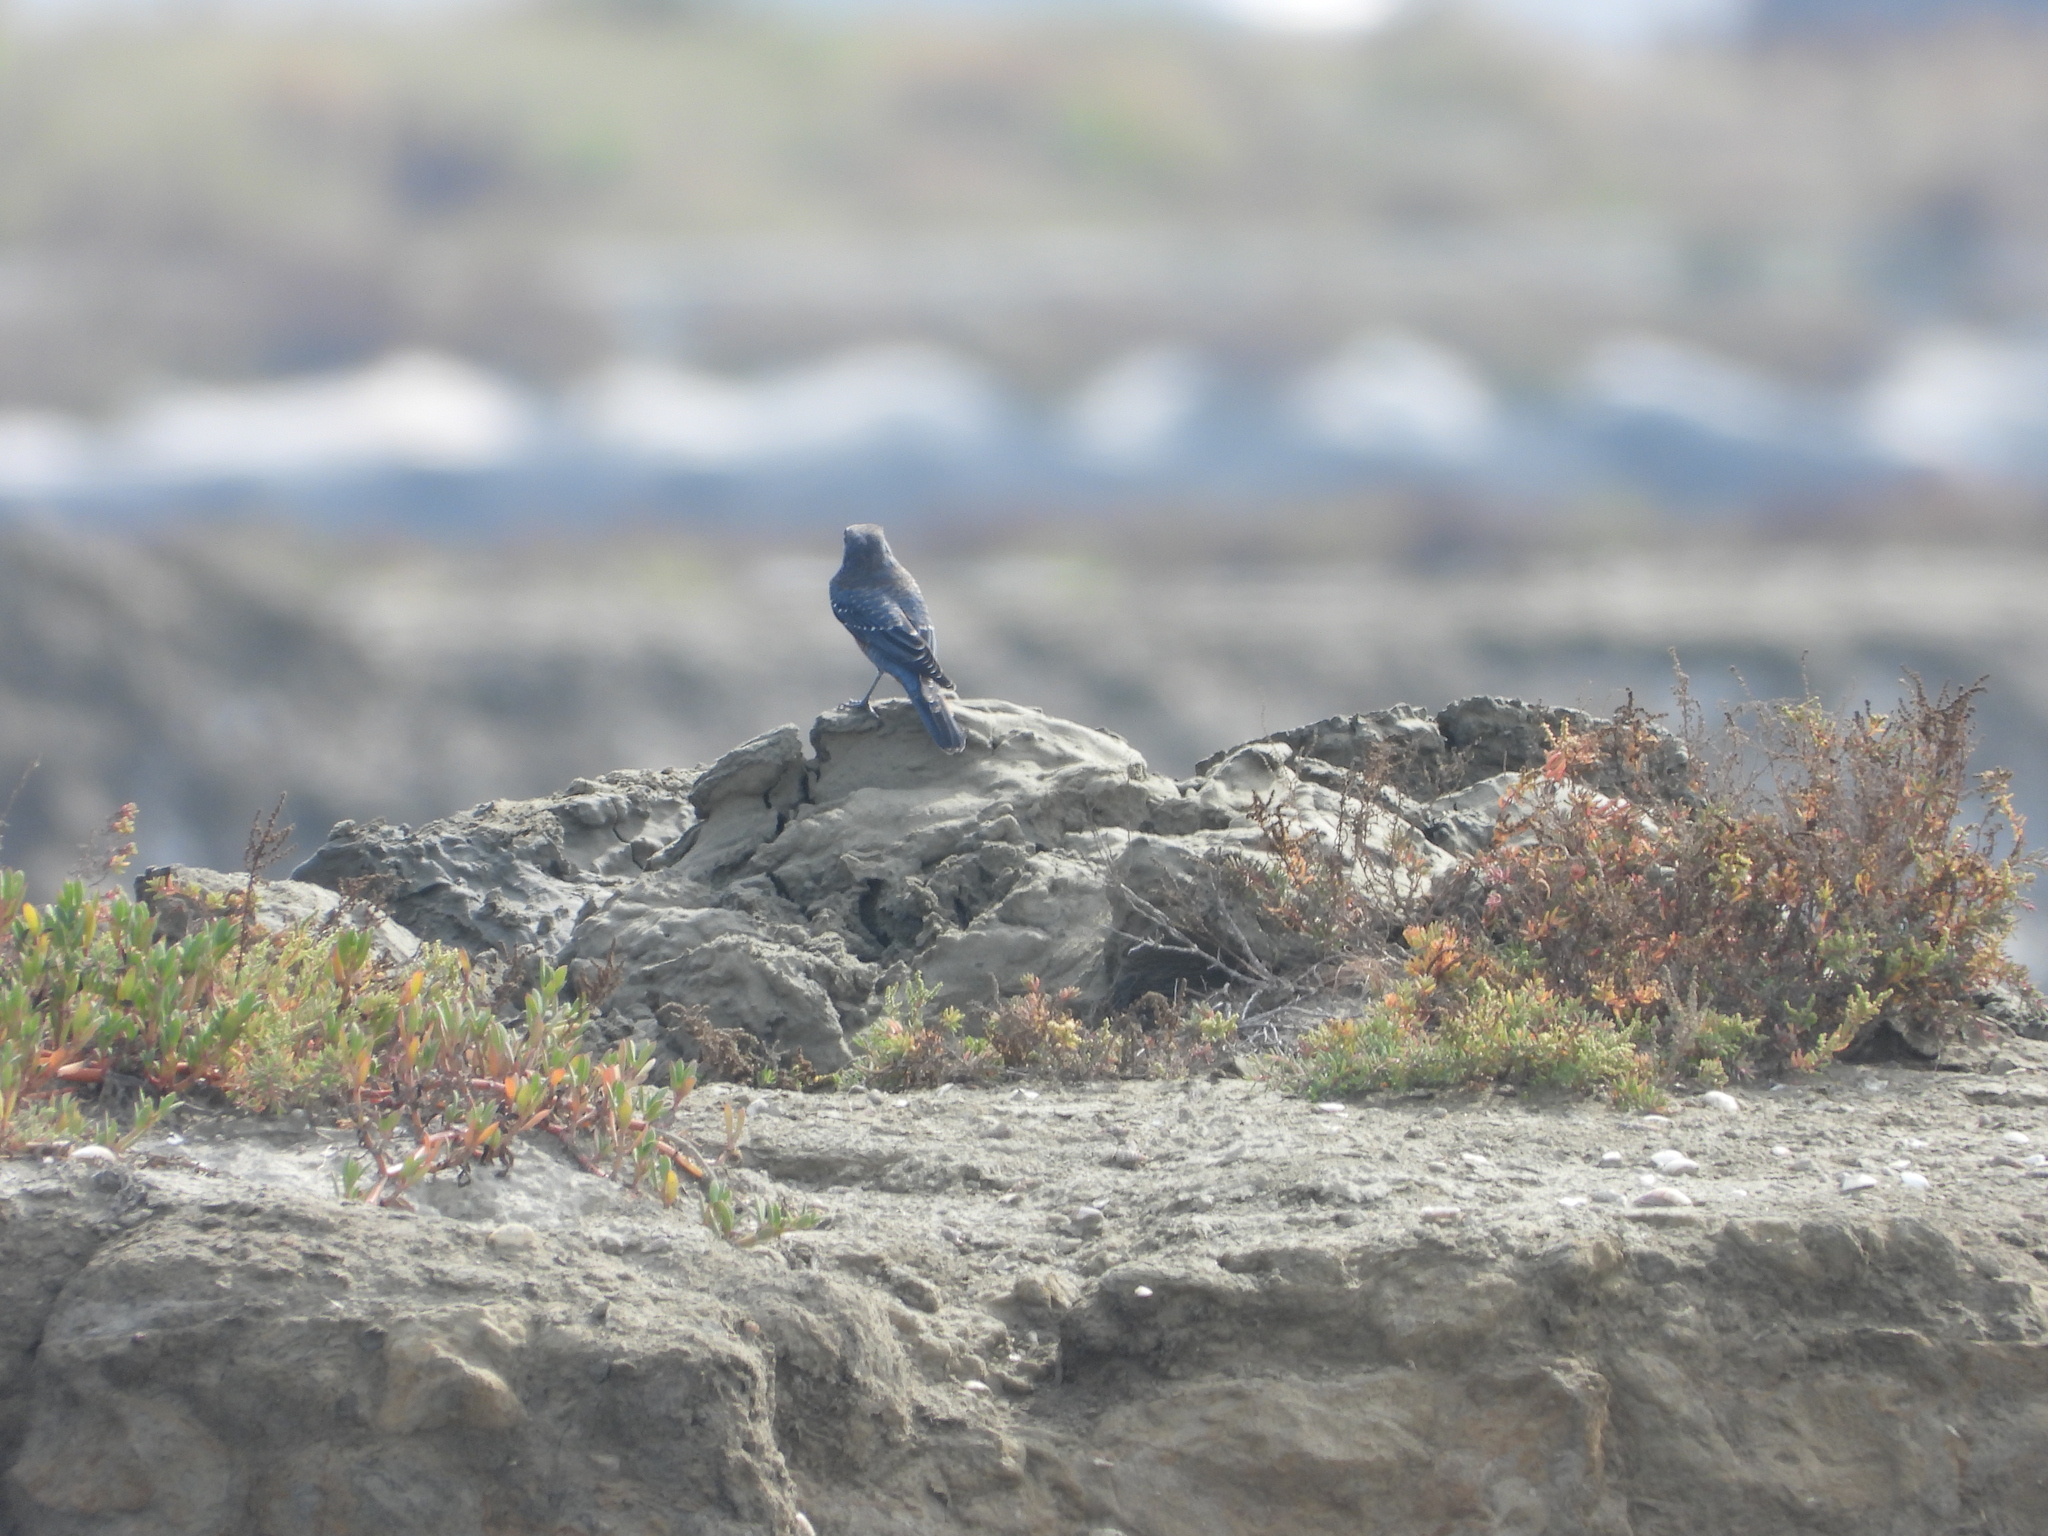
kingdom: Animalia
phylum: Chordata
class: Aves
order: Passeriformes
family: Muscicapidae
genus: Monticola
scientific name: Monticola solitarius
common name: Blue rock thrush
